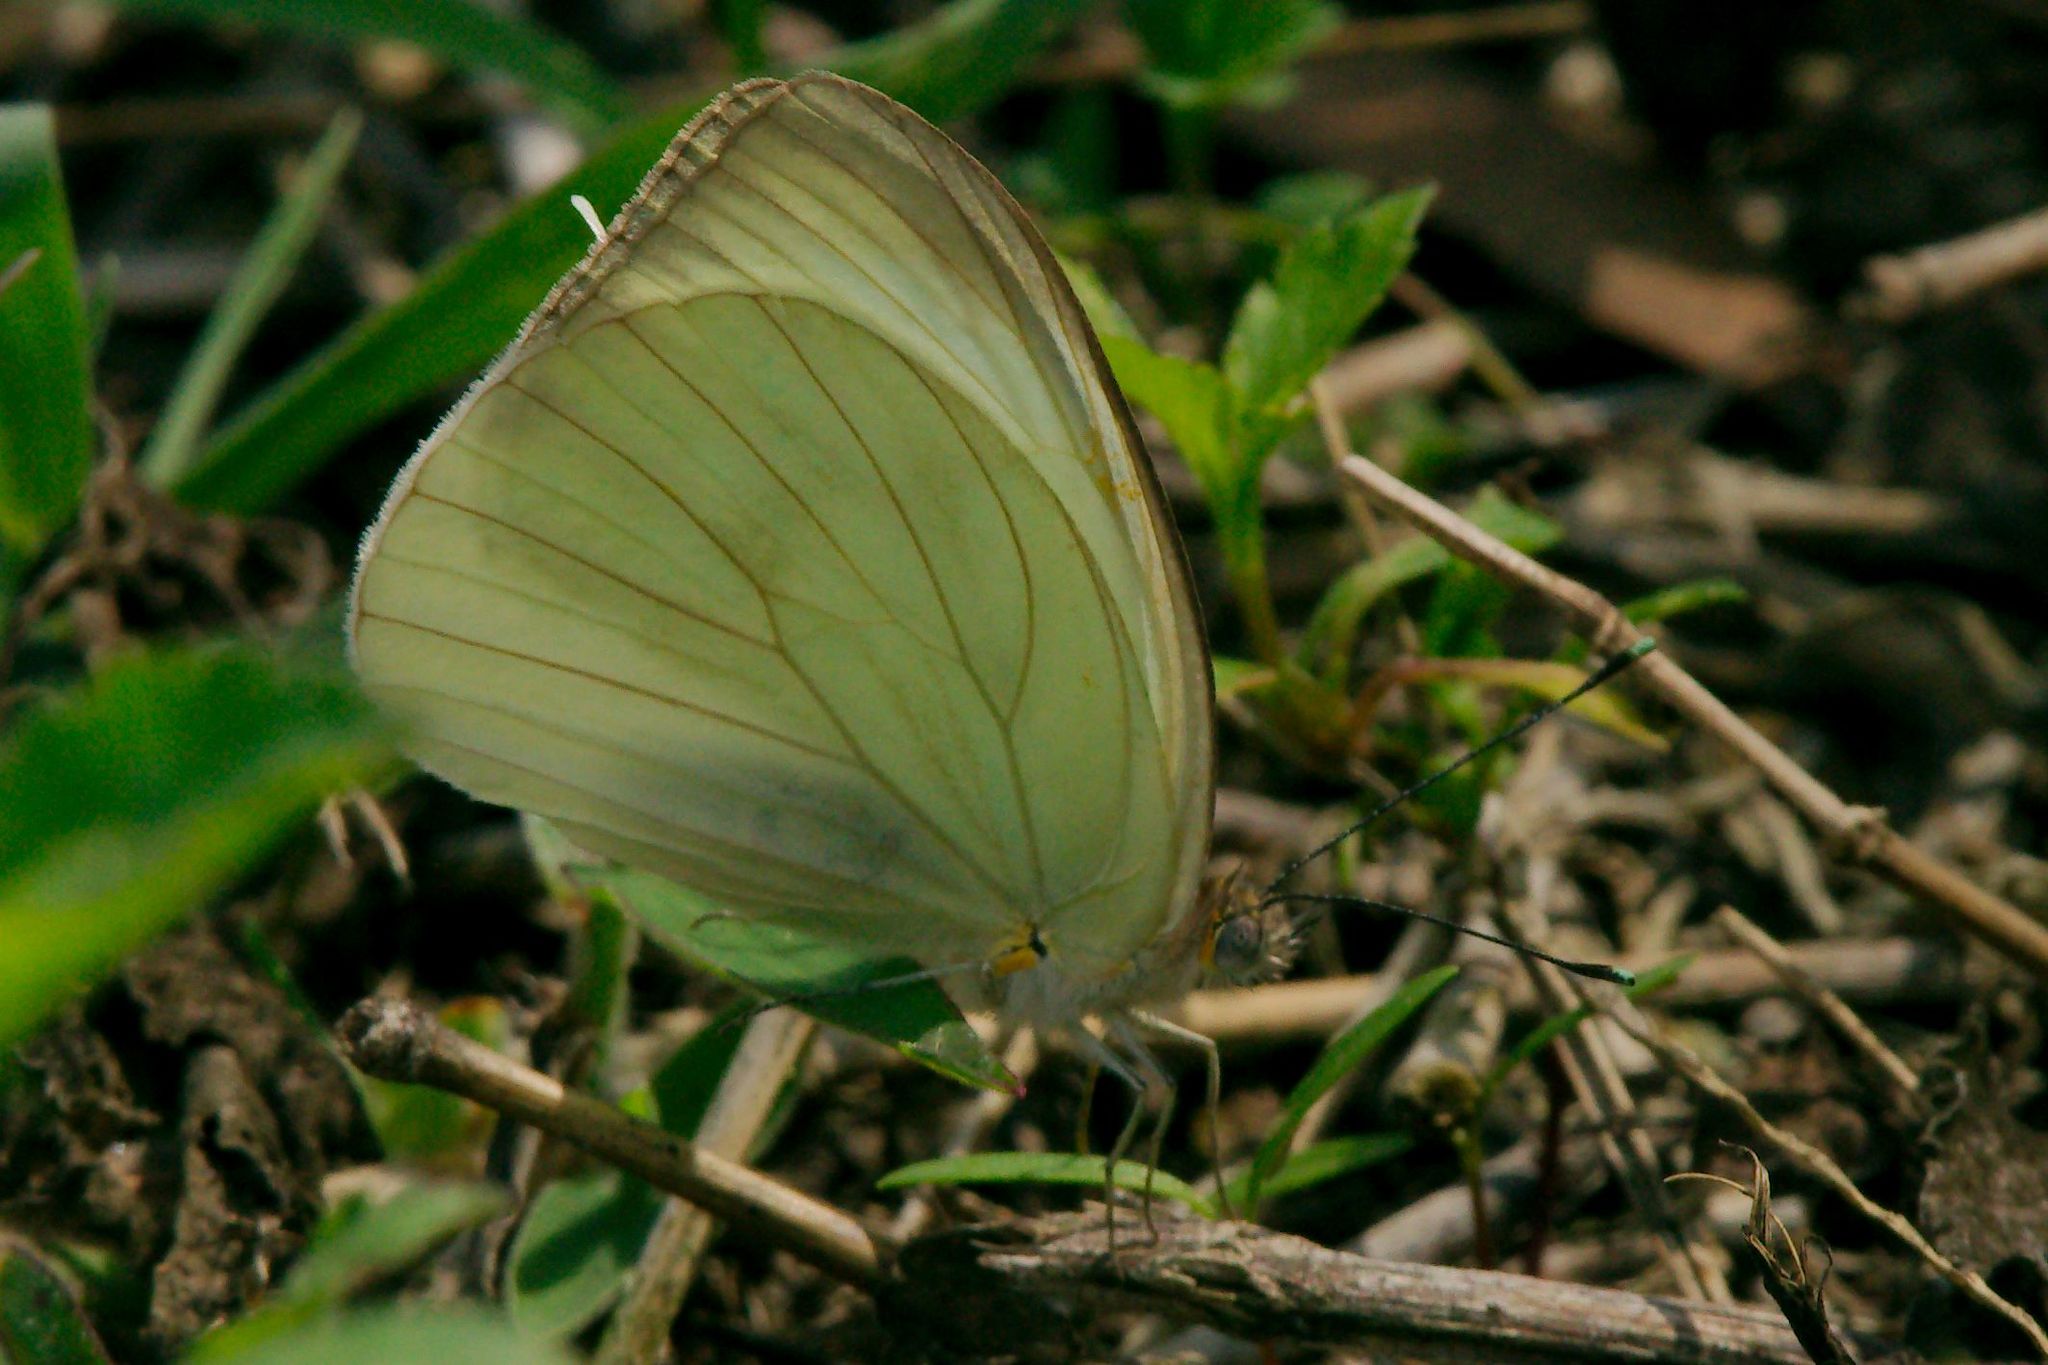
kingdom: Animalia
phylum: Arthropoda
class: Insecta
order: Lepidoptera
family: Pieridae
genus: Ascia
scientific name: Ascia monuste
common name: Great southern white
